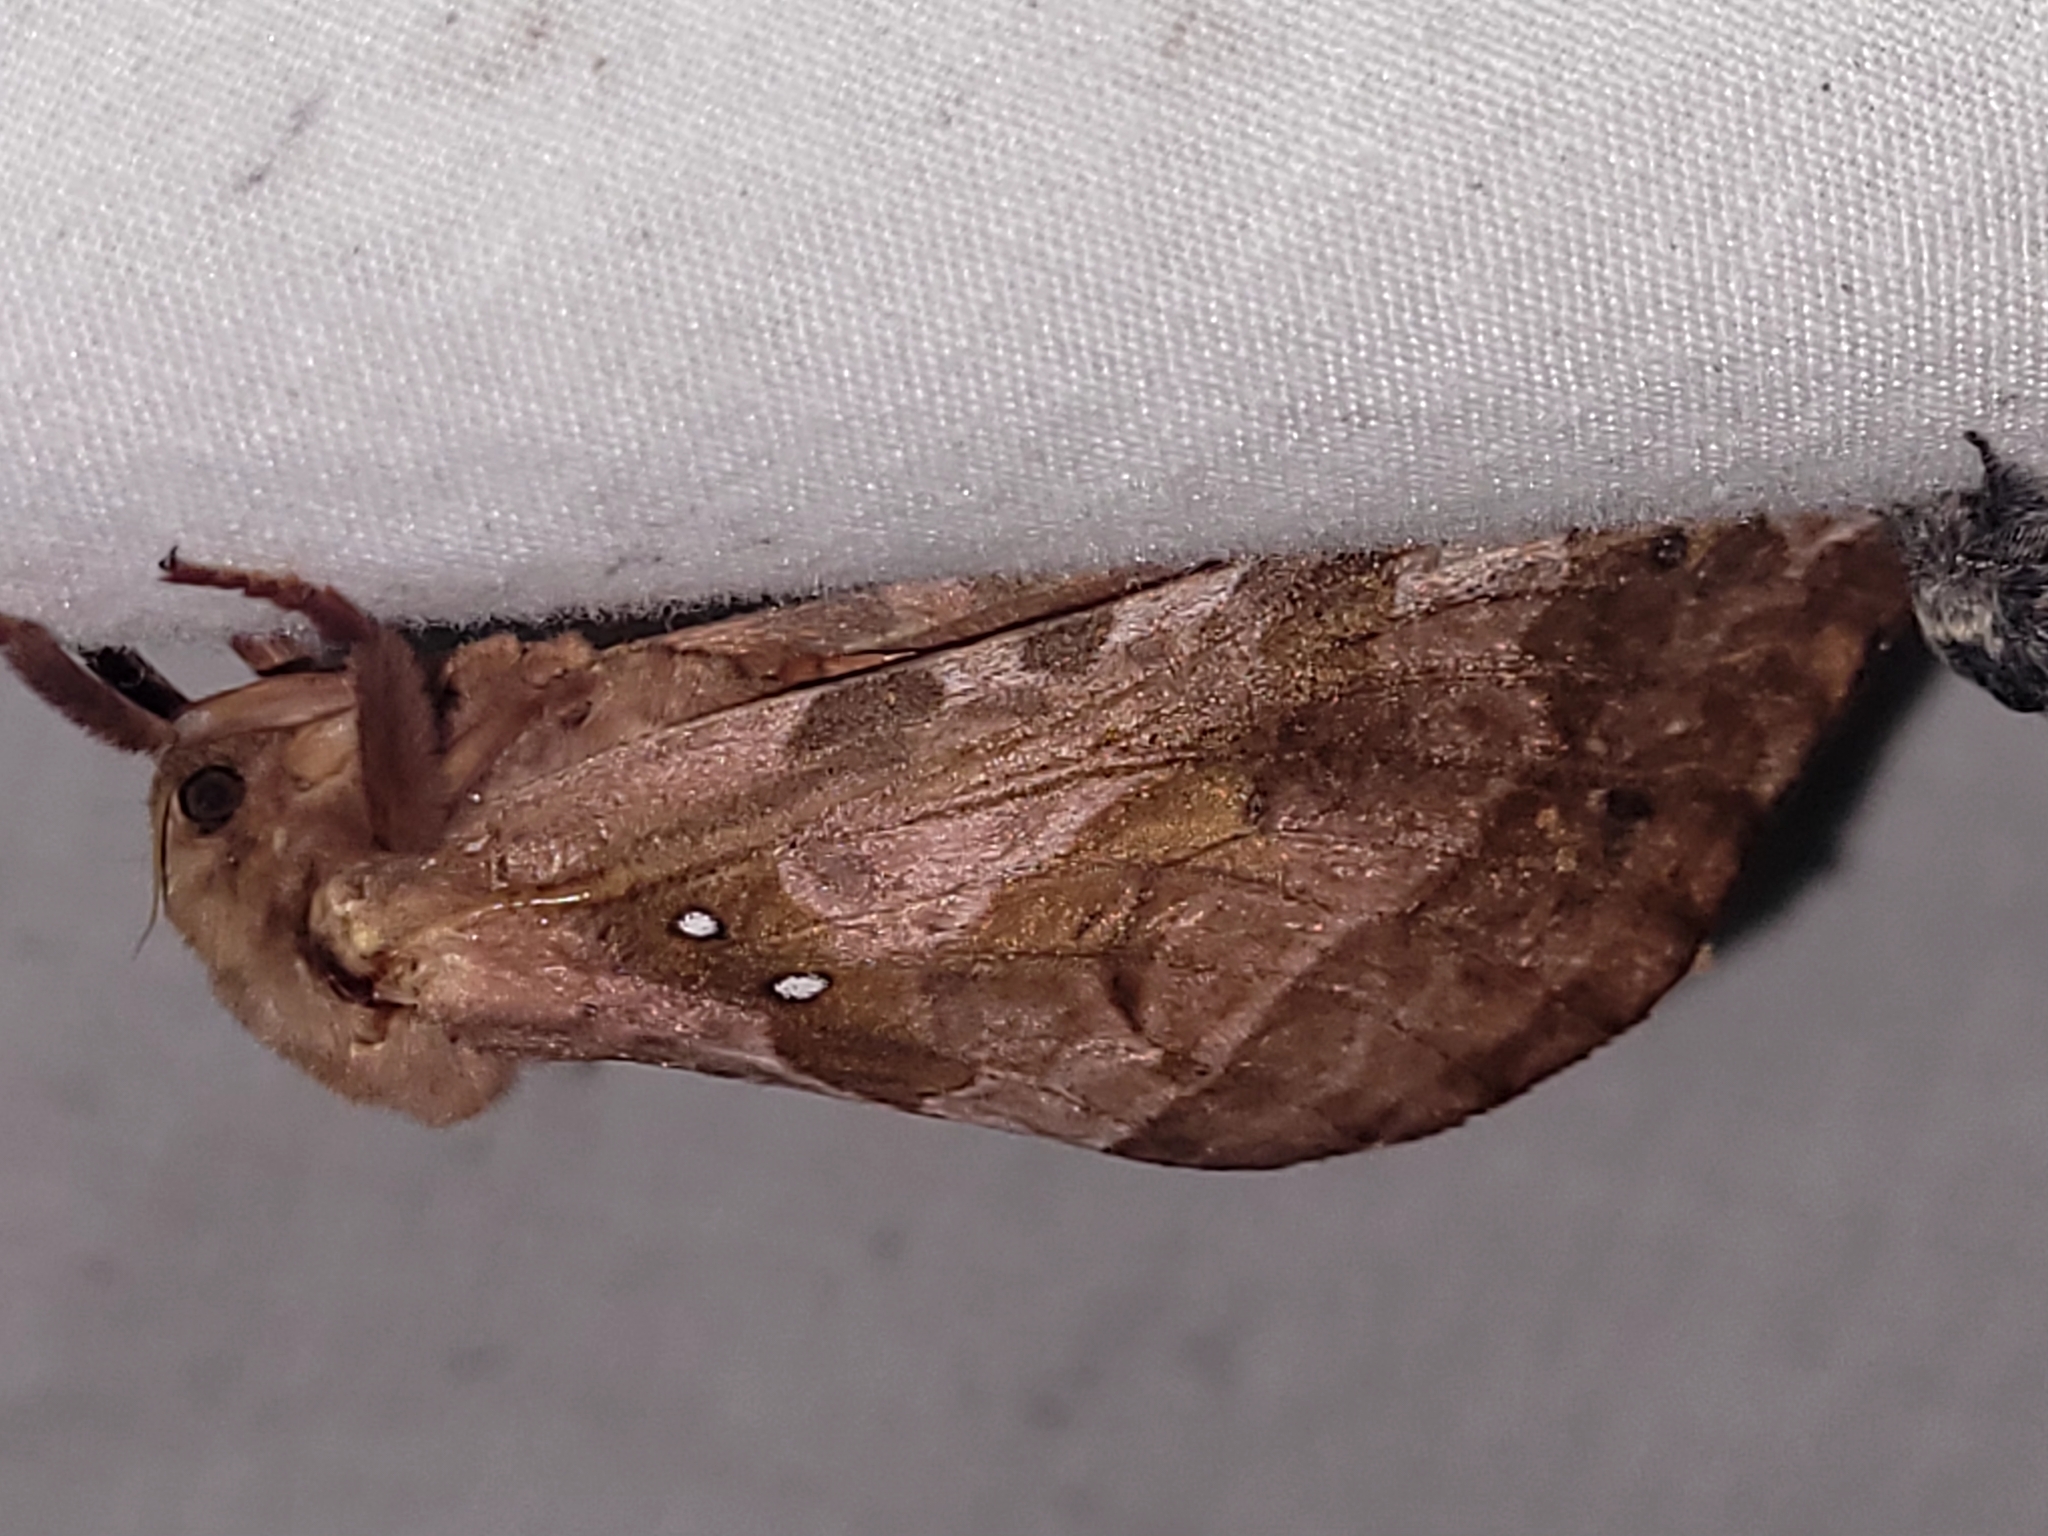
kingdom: Animalia
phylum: Arthropoda
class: Insecta
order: Lepidoptera
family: Hepialidae
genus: Sthenopis
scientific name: Sthenopis purpurascens
